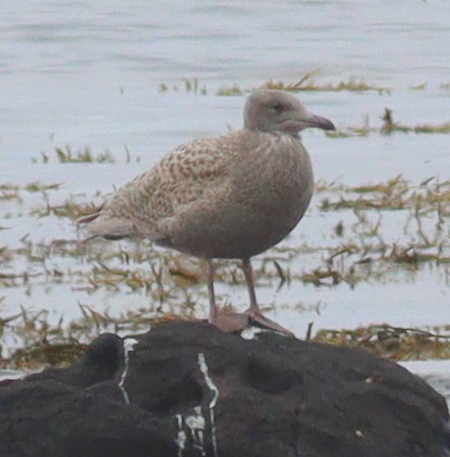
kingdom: Animalia
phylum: Chordata
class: Aves
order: Charadriiformes
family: Laridae
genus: Larus
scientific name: Larus hyperboreus
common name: Glaucous gull
